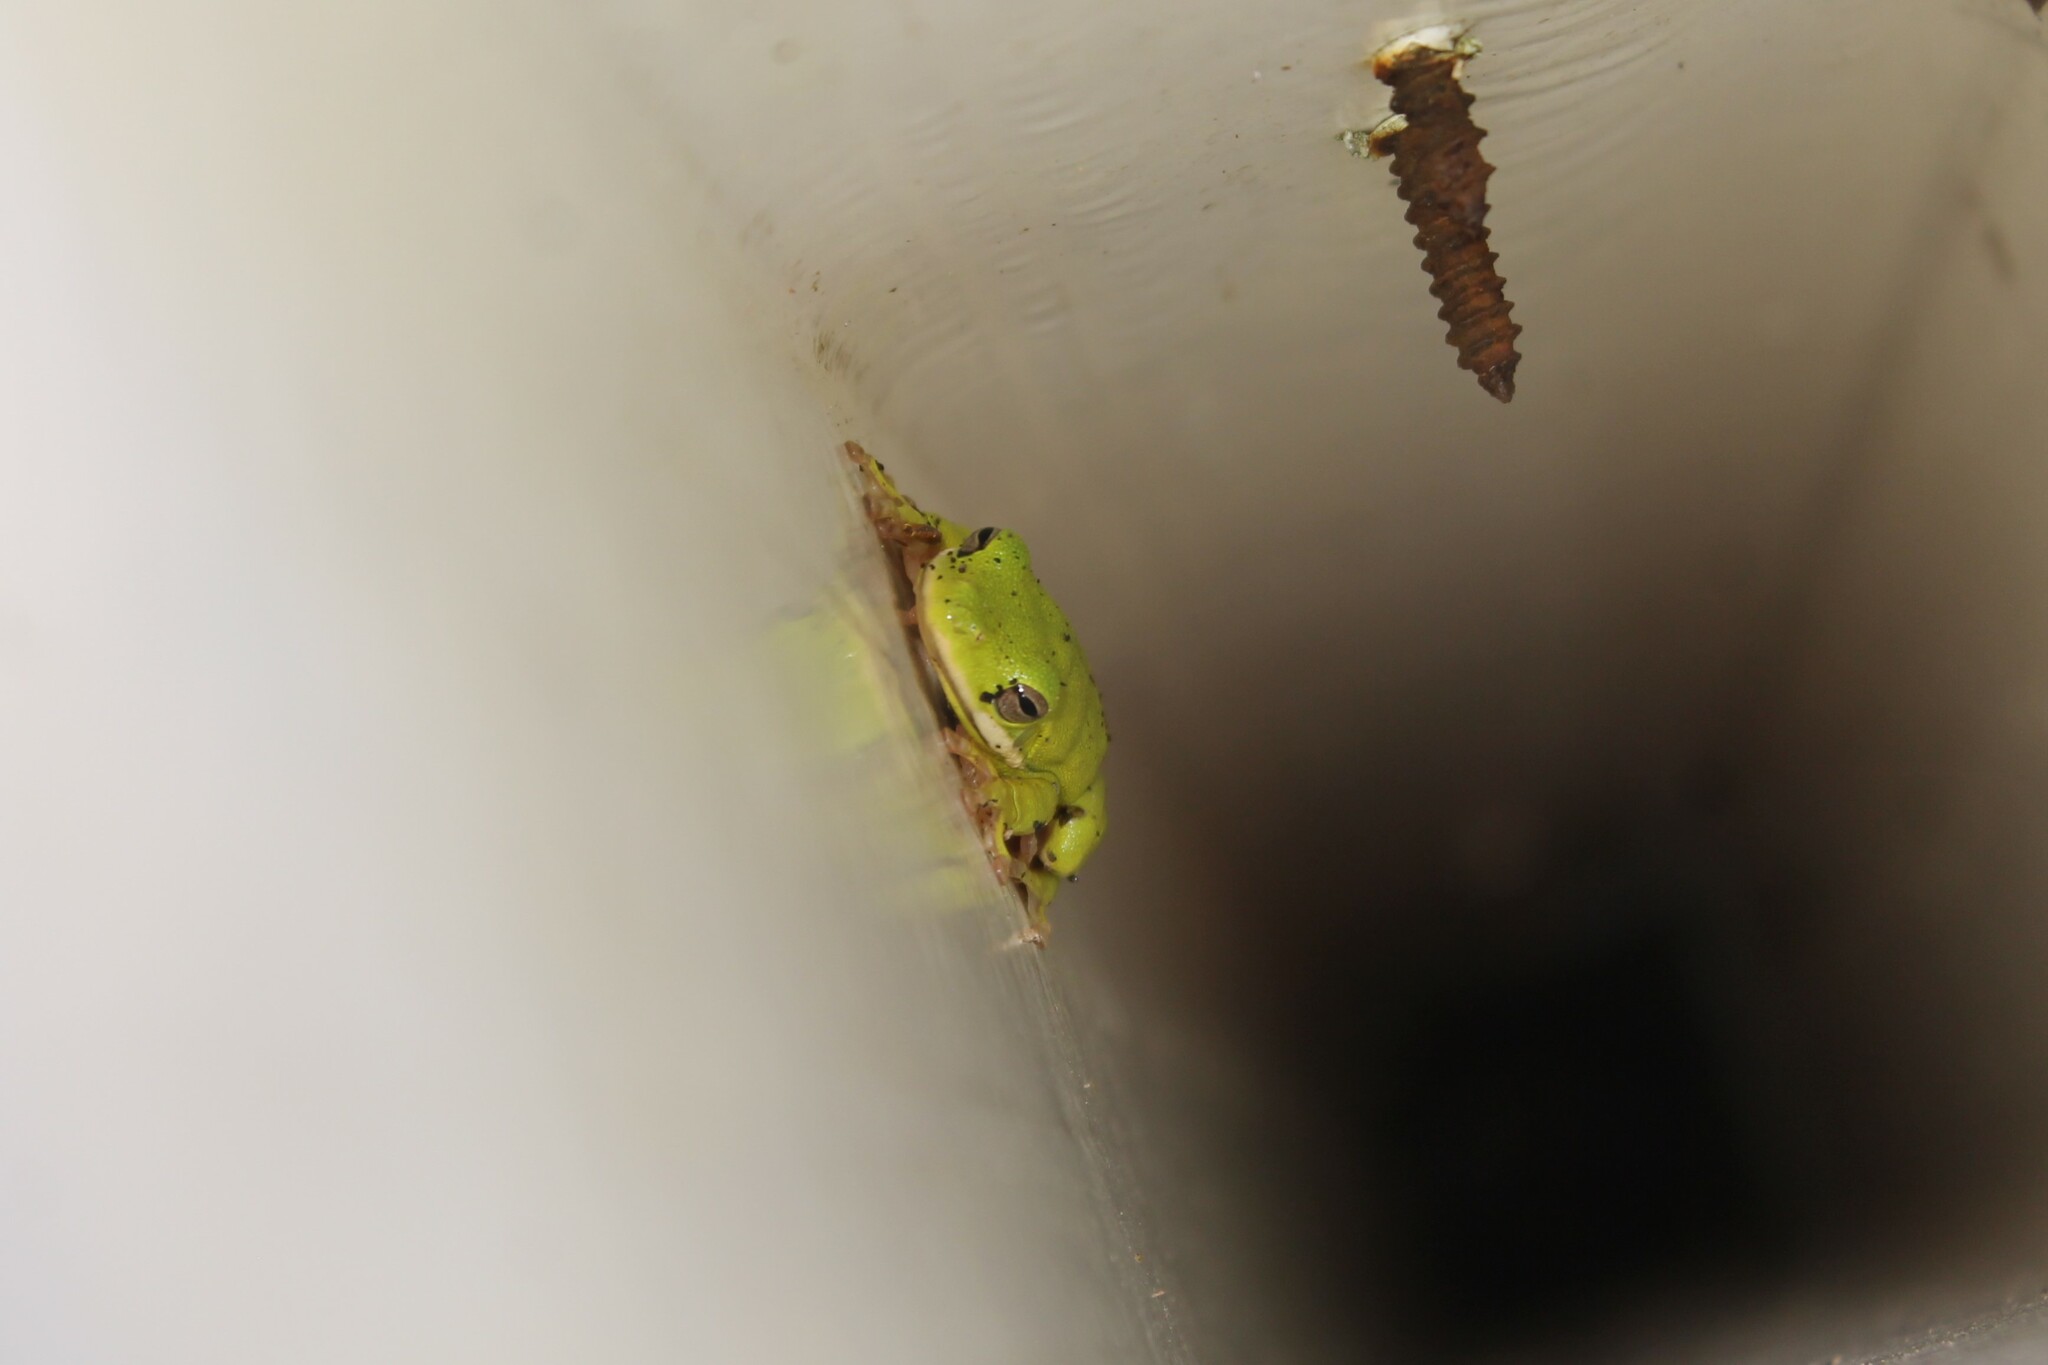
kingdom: Animalia
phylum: Chordata
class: Amphibia
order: Anura
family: Hylidae
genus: Dryophytes
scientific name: Dryophytes cinereus
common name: Green treefrog
